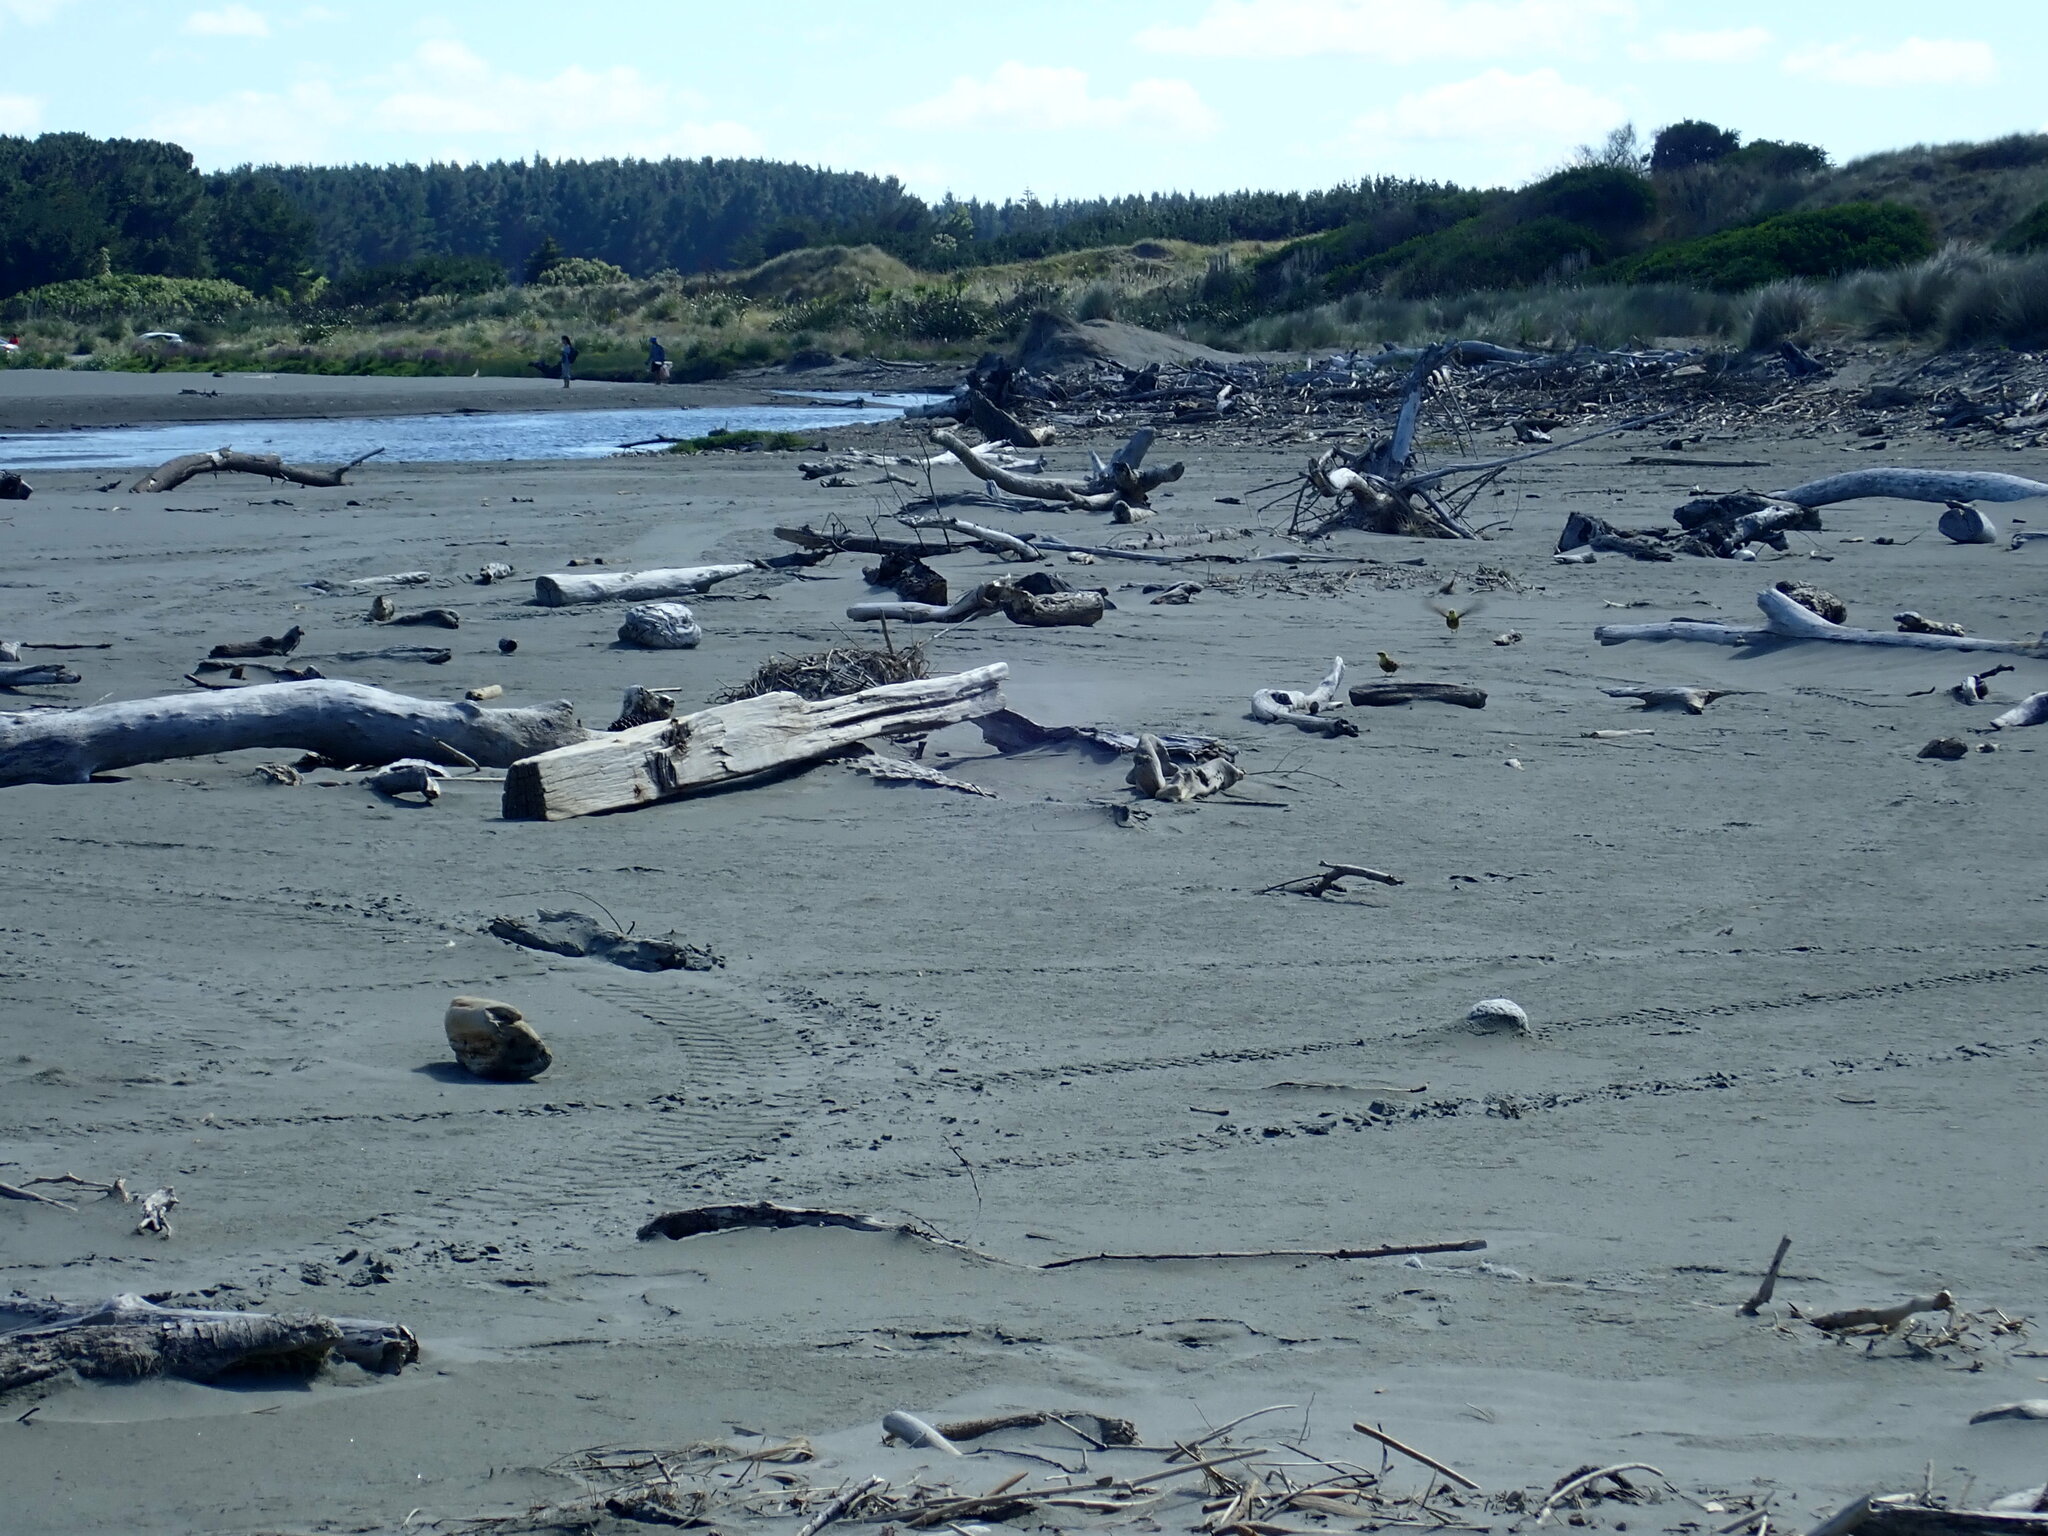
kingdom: Animalia
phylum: Chordata
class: Aves
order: Passeriformes
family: Emberizidae
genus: Emberiza
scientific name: Emberiza citrinella
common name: Yellowhammer
